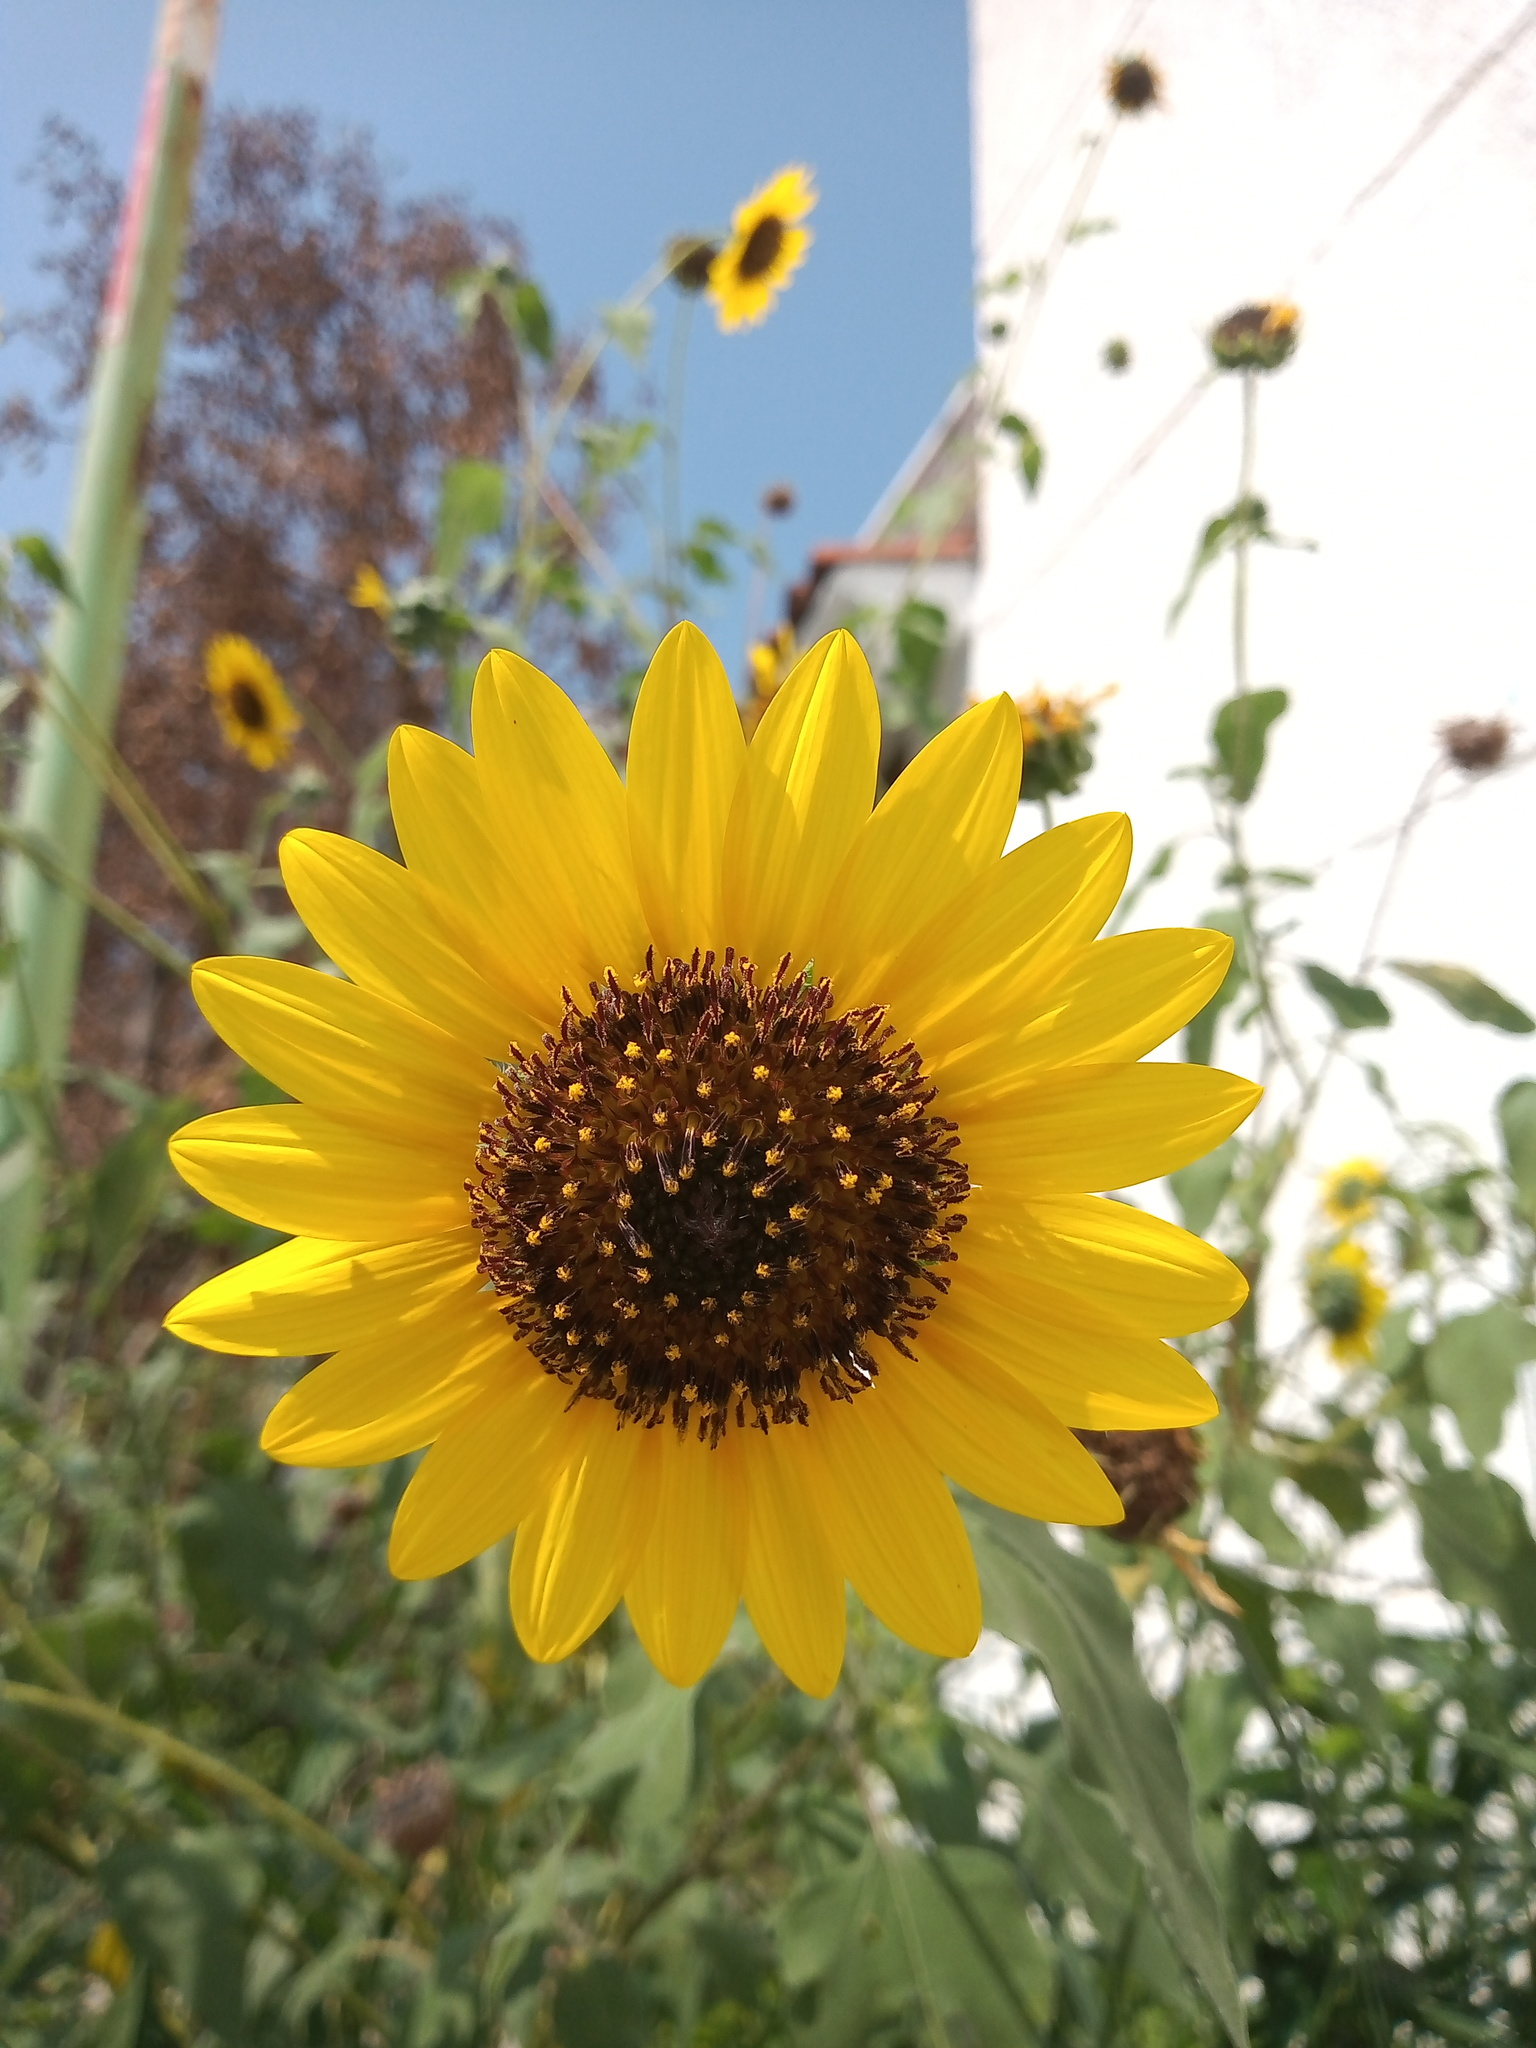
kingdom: Plantae
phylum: Tracheophyta
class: Magnoliopsida
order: Asterales
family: Asteraceae
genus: Helianthus
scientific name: Helianthus annuus
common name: Sunflower
